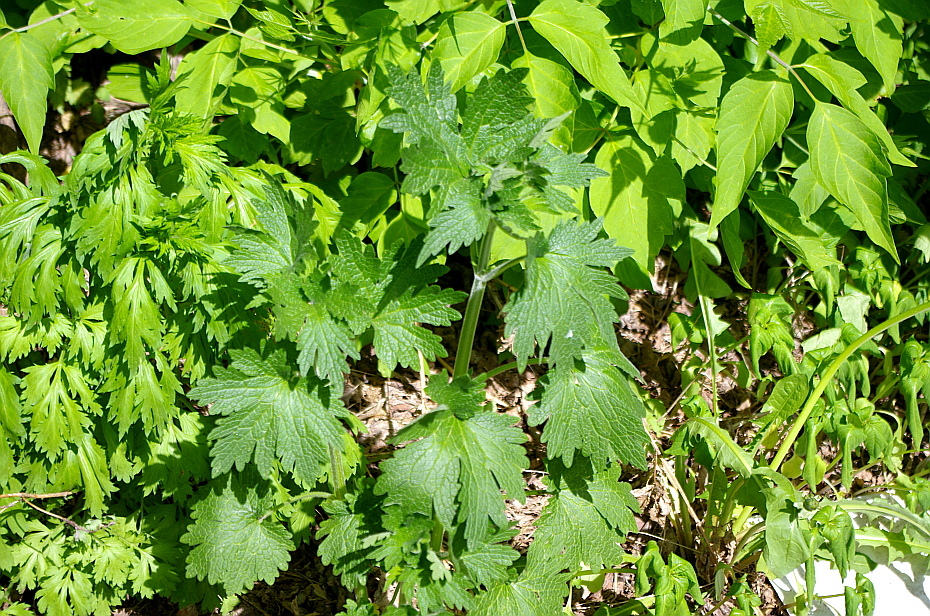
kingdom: Plantae
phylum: Tracheophyta
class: Magnoliopsida
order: Lamiales
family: Lamiaceae
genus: Leonurus
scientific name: Leonurus quinquelobatus
